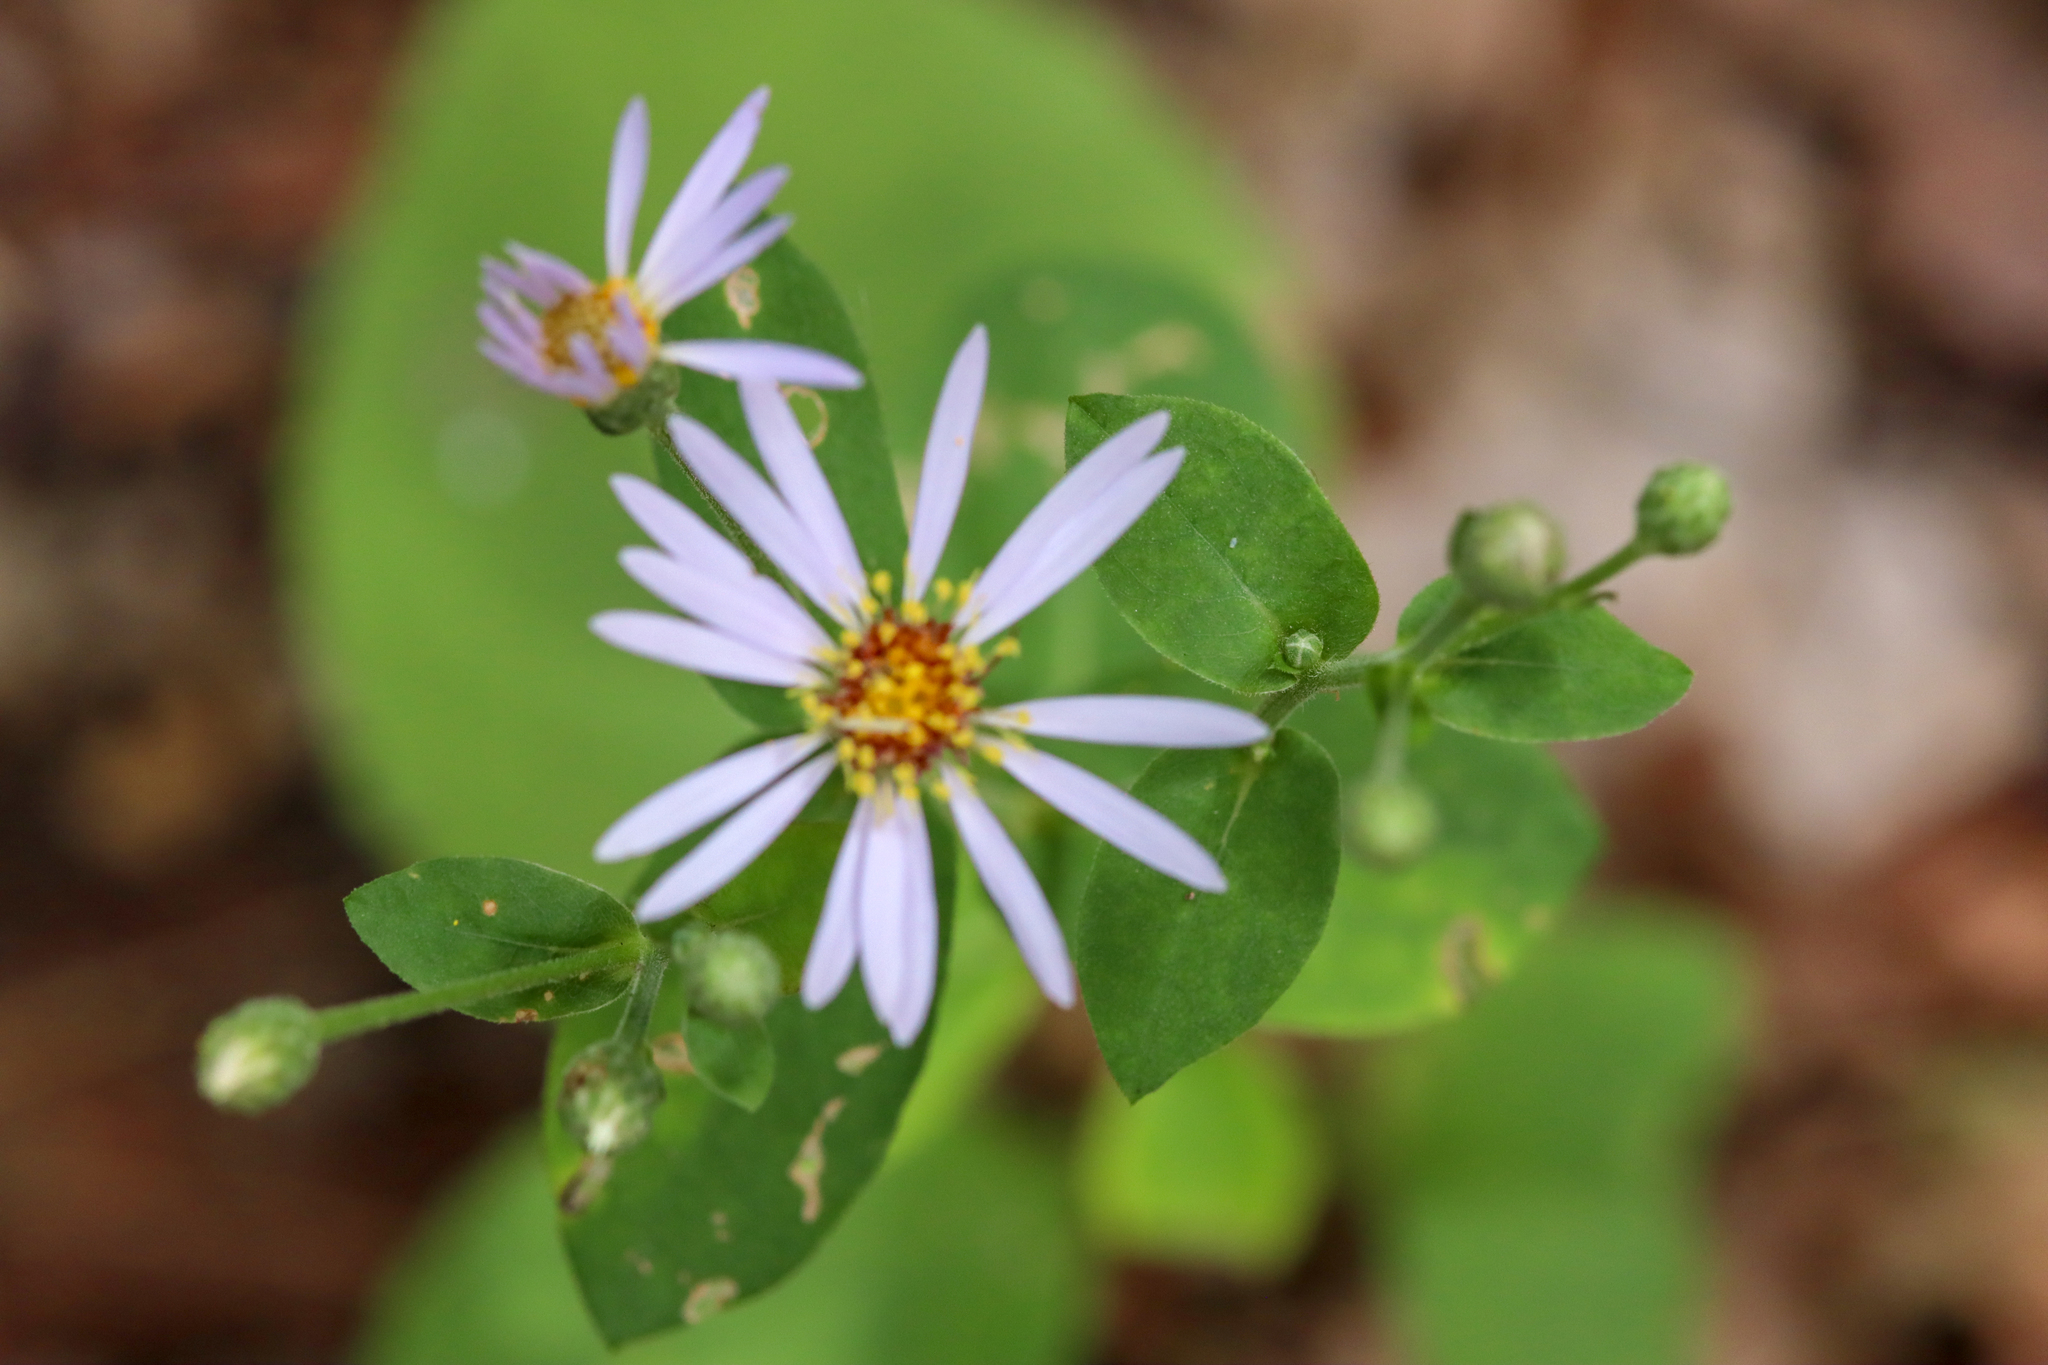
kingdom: Plantae
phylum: Tracheophyta
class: Magnoliopsida
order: Asterales
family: Asteraceae
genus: Eurybia
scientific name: Eurybia macrophylla
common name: Big-leaved aster
